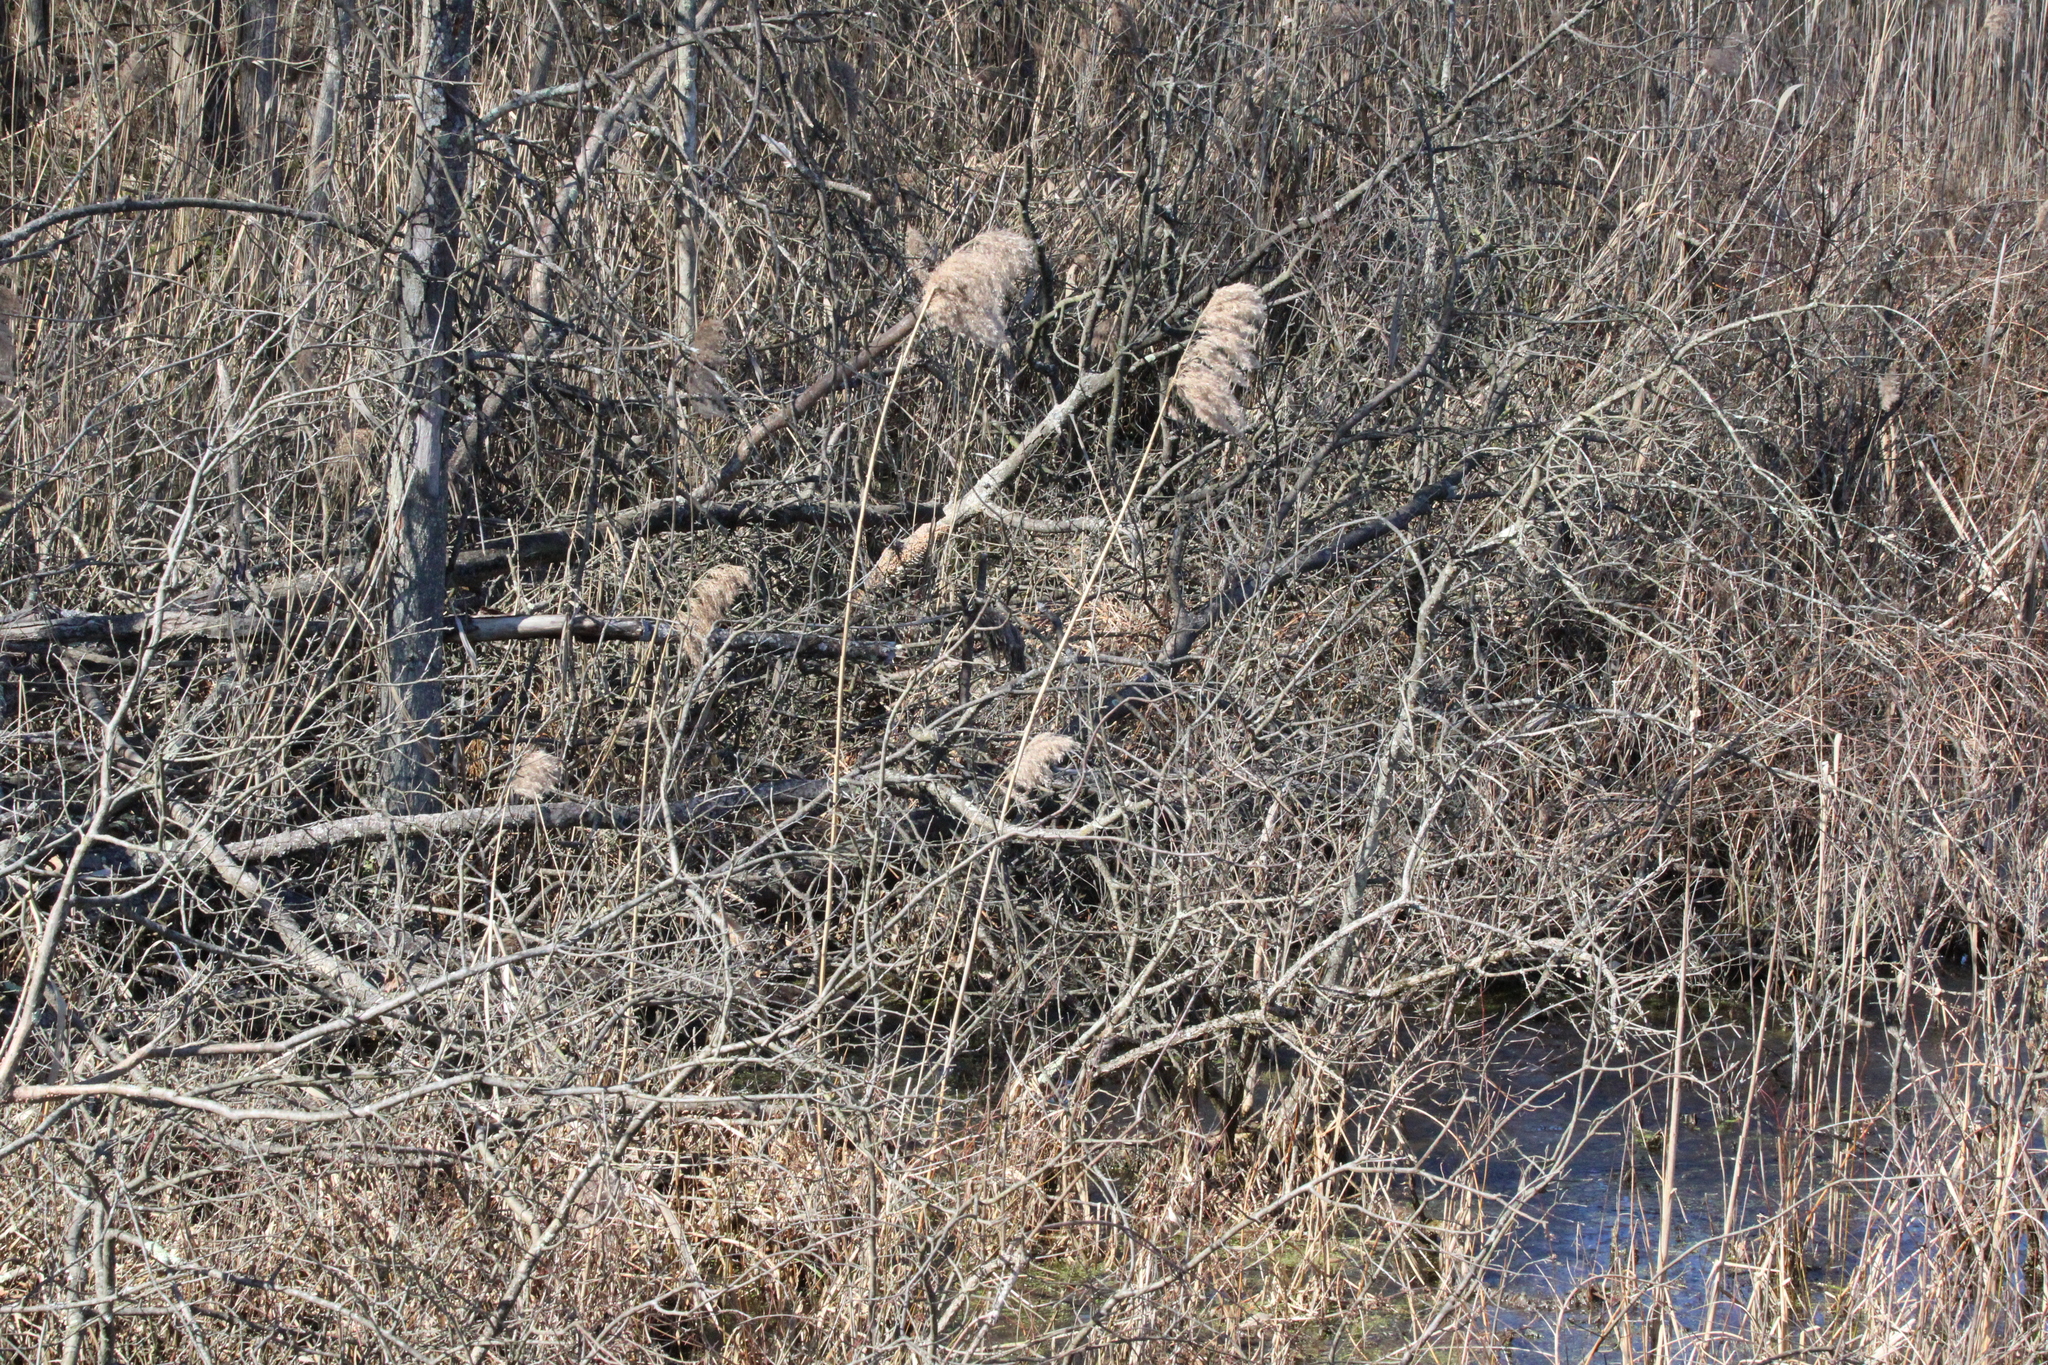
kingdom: Plantae
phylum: Tracheophyta
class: Liliopsida
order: Poales
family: Poaceae
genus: Phragmites
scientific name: Phragmites australis
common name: Common reed
